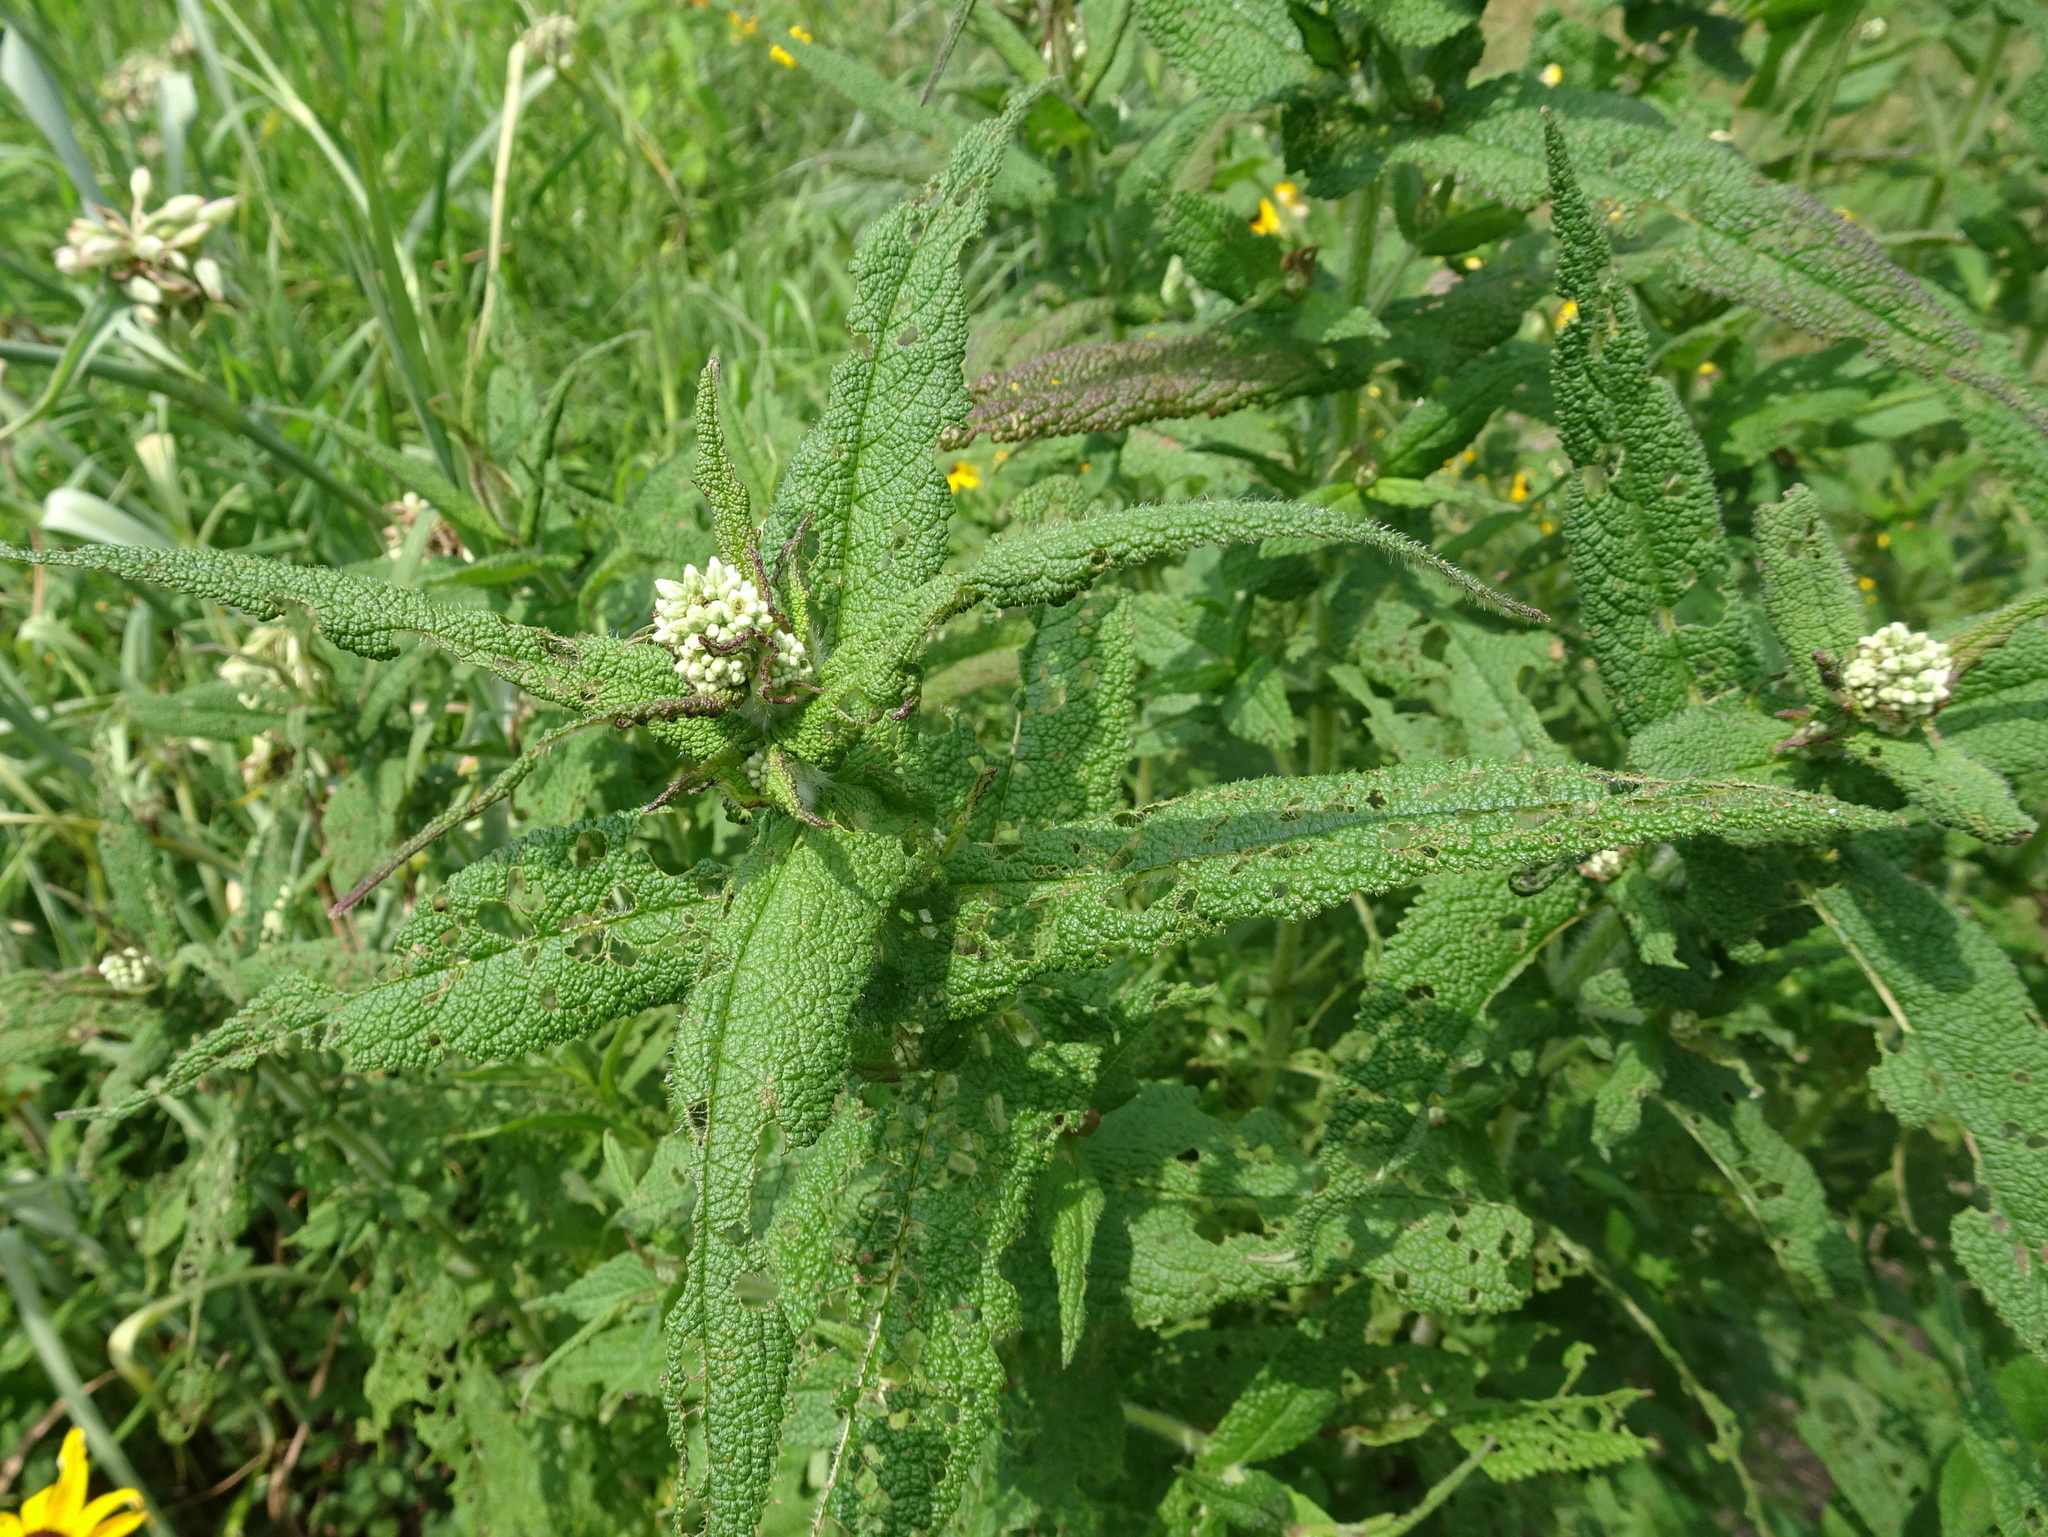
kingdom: Plantae
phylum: Tracheophyta
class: Magnoliopsida
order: Asterales
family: Asteraceae
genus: Eupatorium
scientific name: Eupatorium perfoliatum
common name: Boneset
